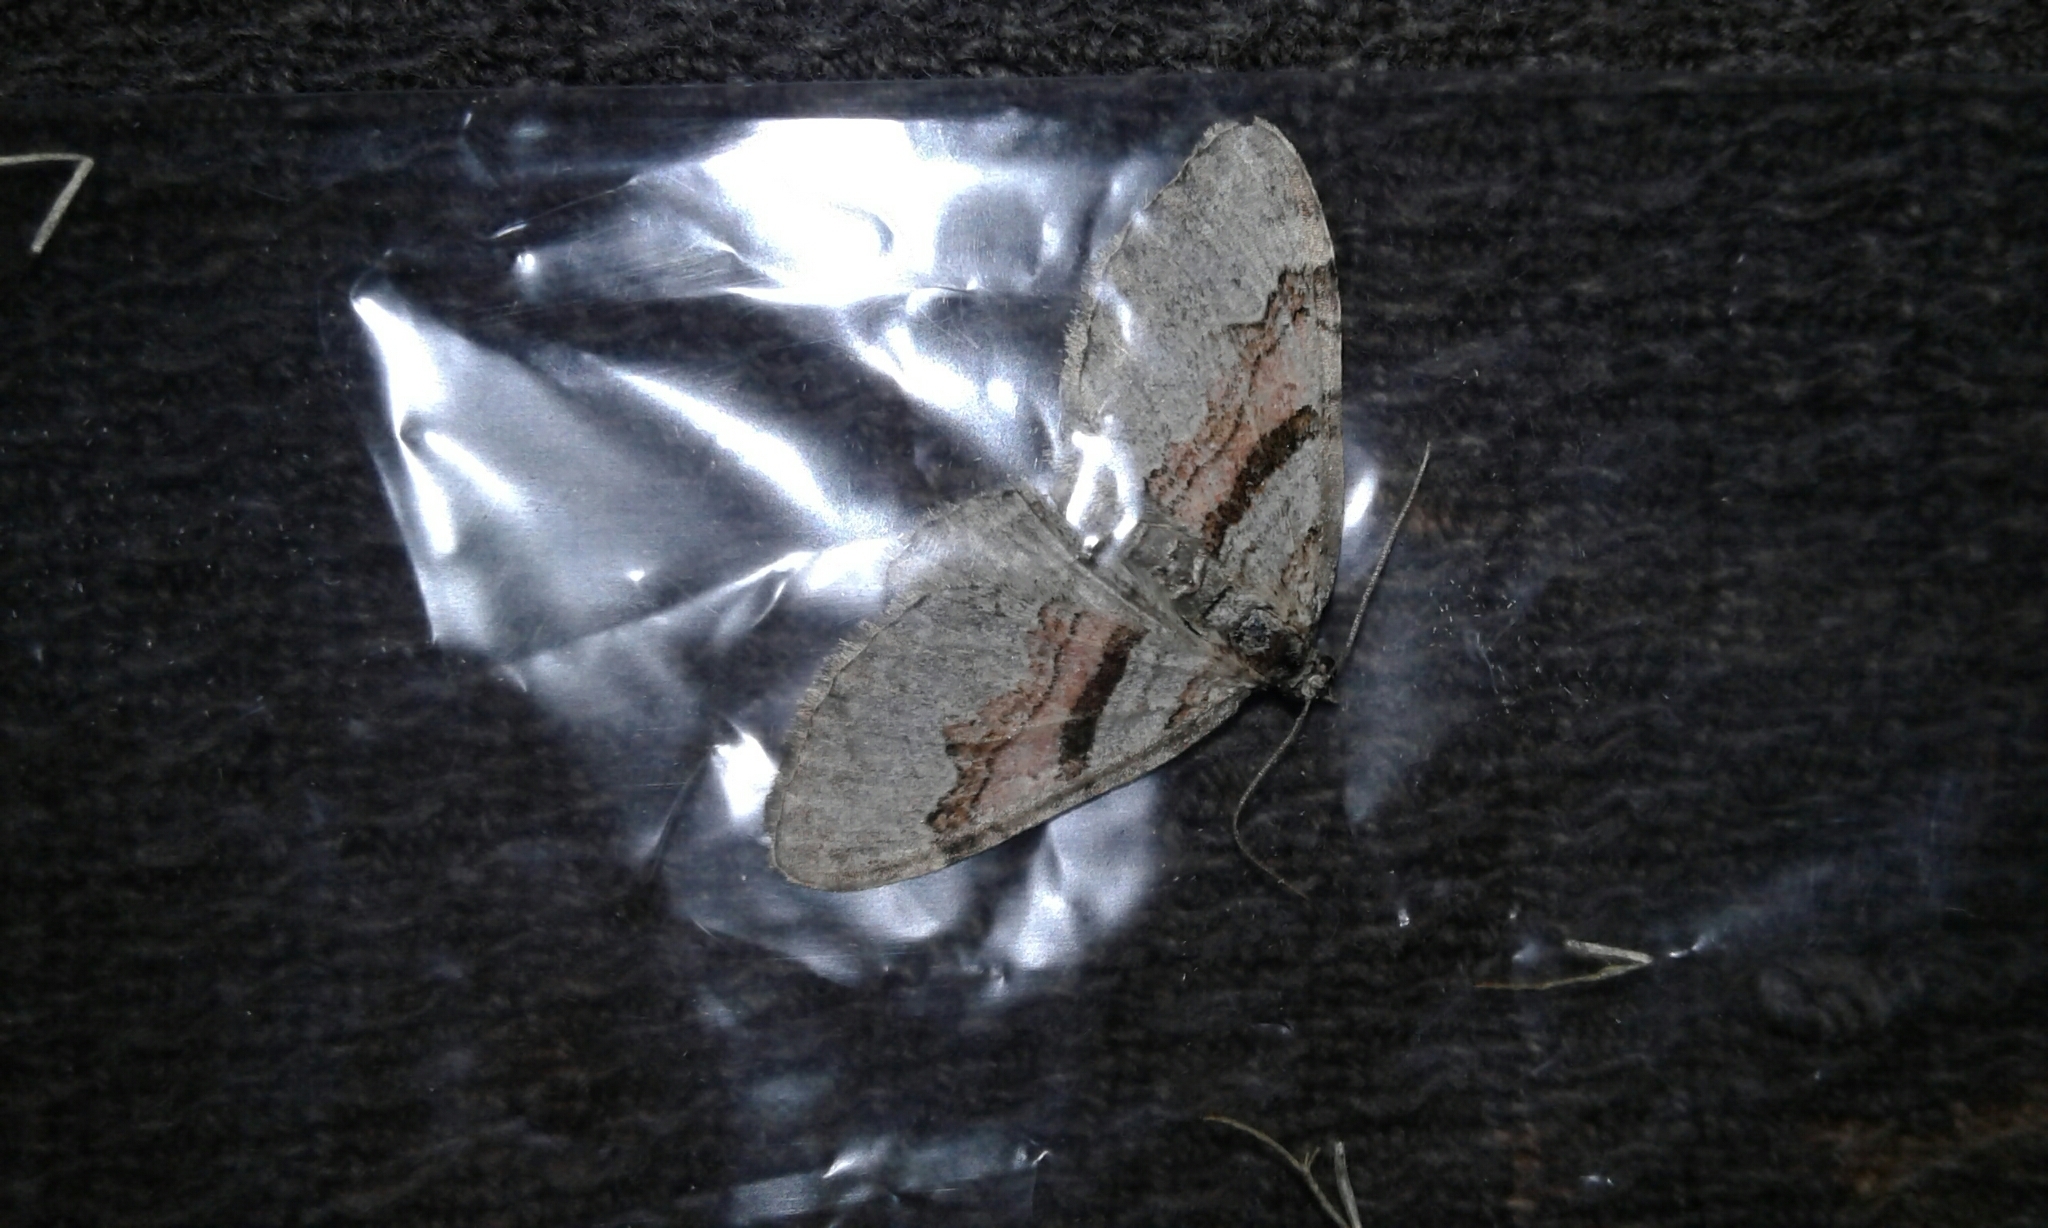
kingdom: Animalia
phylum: Arthropoda
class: Insecta
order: Lepidoptera
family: Geometridae
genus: Xanthorhoe
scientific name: Xanthorhoe labradorensis
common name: Labrador carpet
